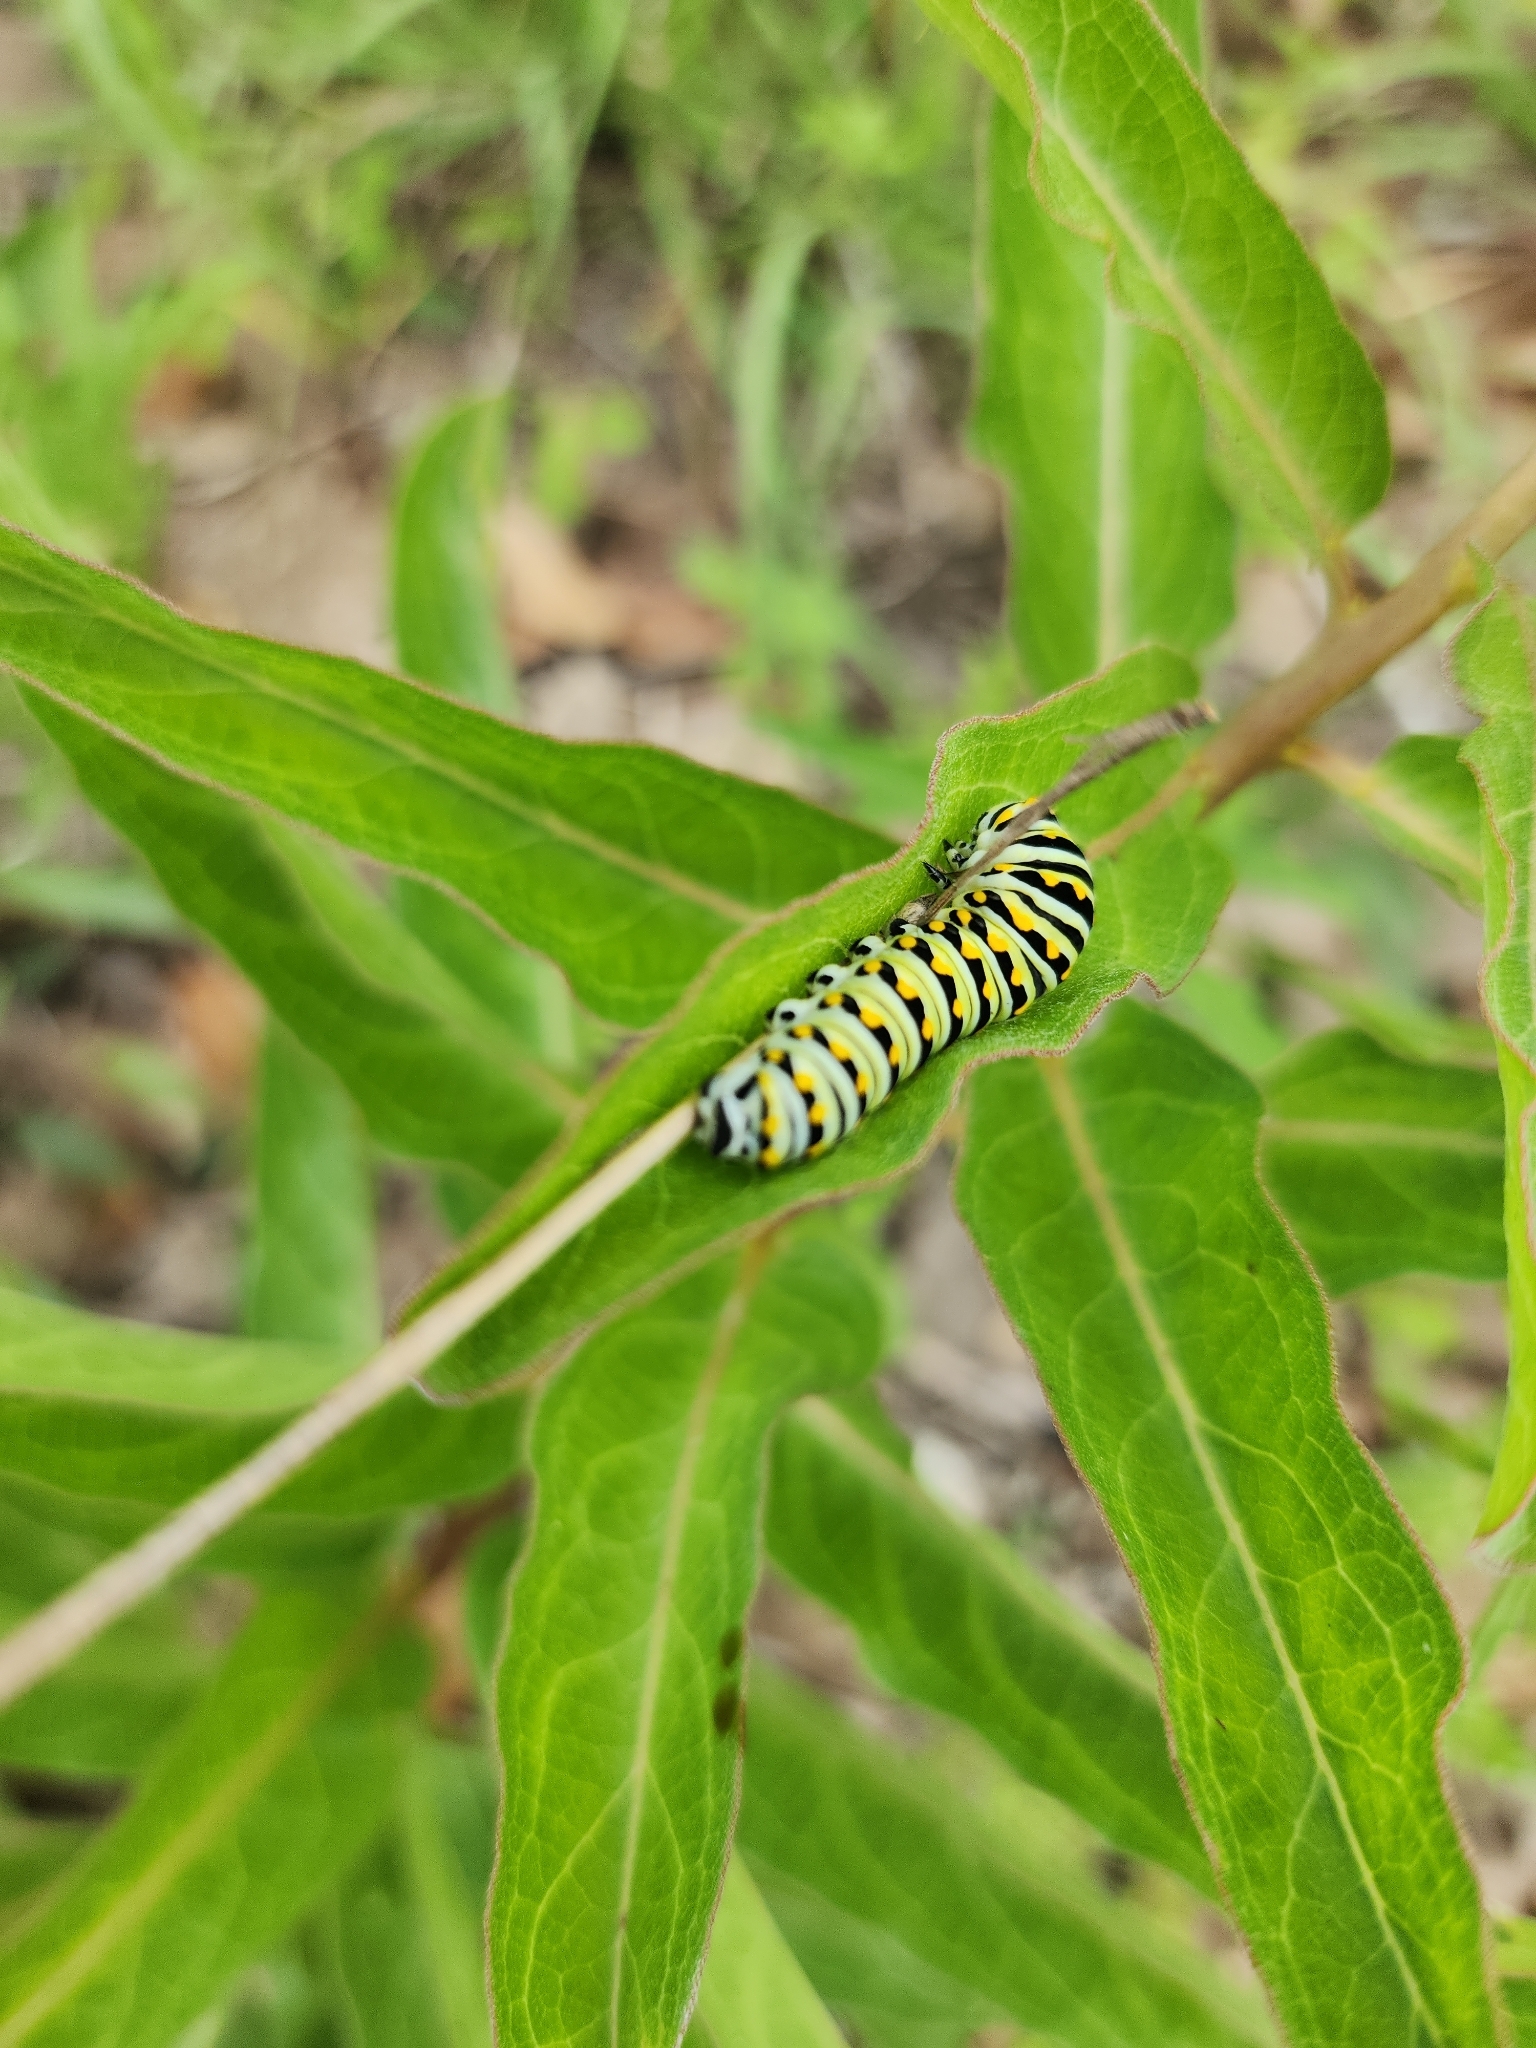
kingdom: Animalia
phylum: Arthropoda
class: Insecta
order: Lepidoptera
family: Papilionidae
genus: Papilio
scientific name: Papilio polyxenes
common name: Black swallowtail
